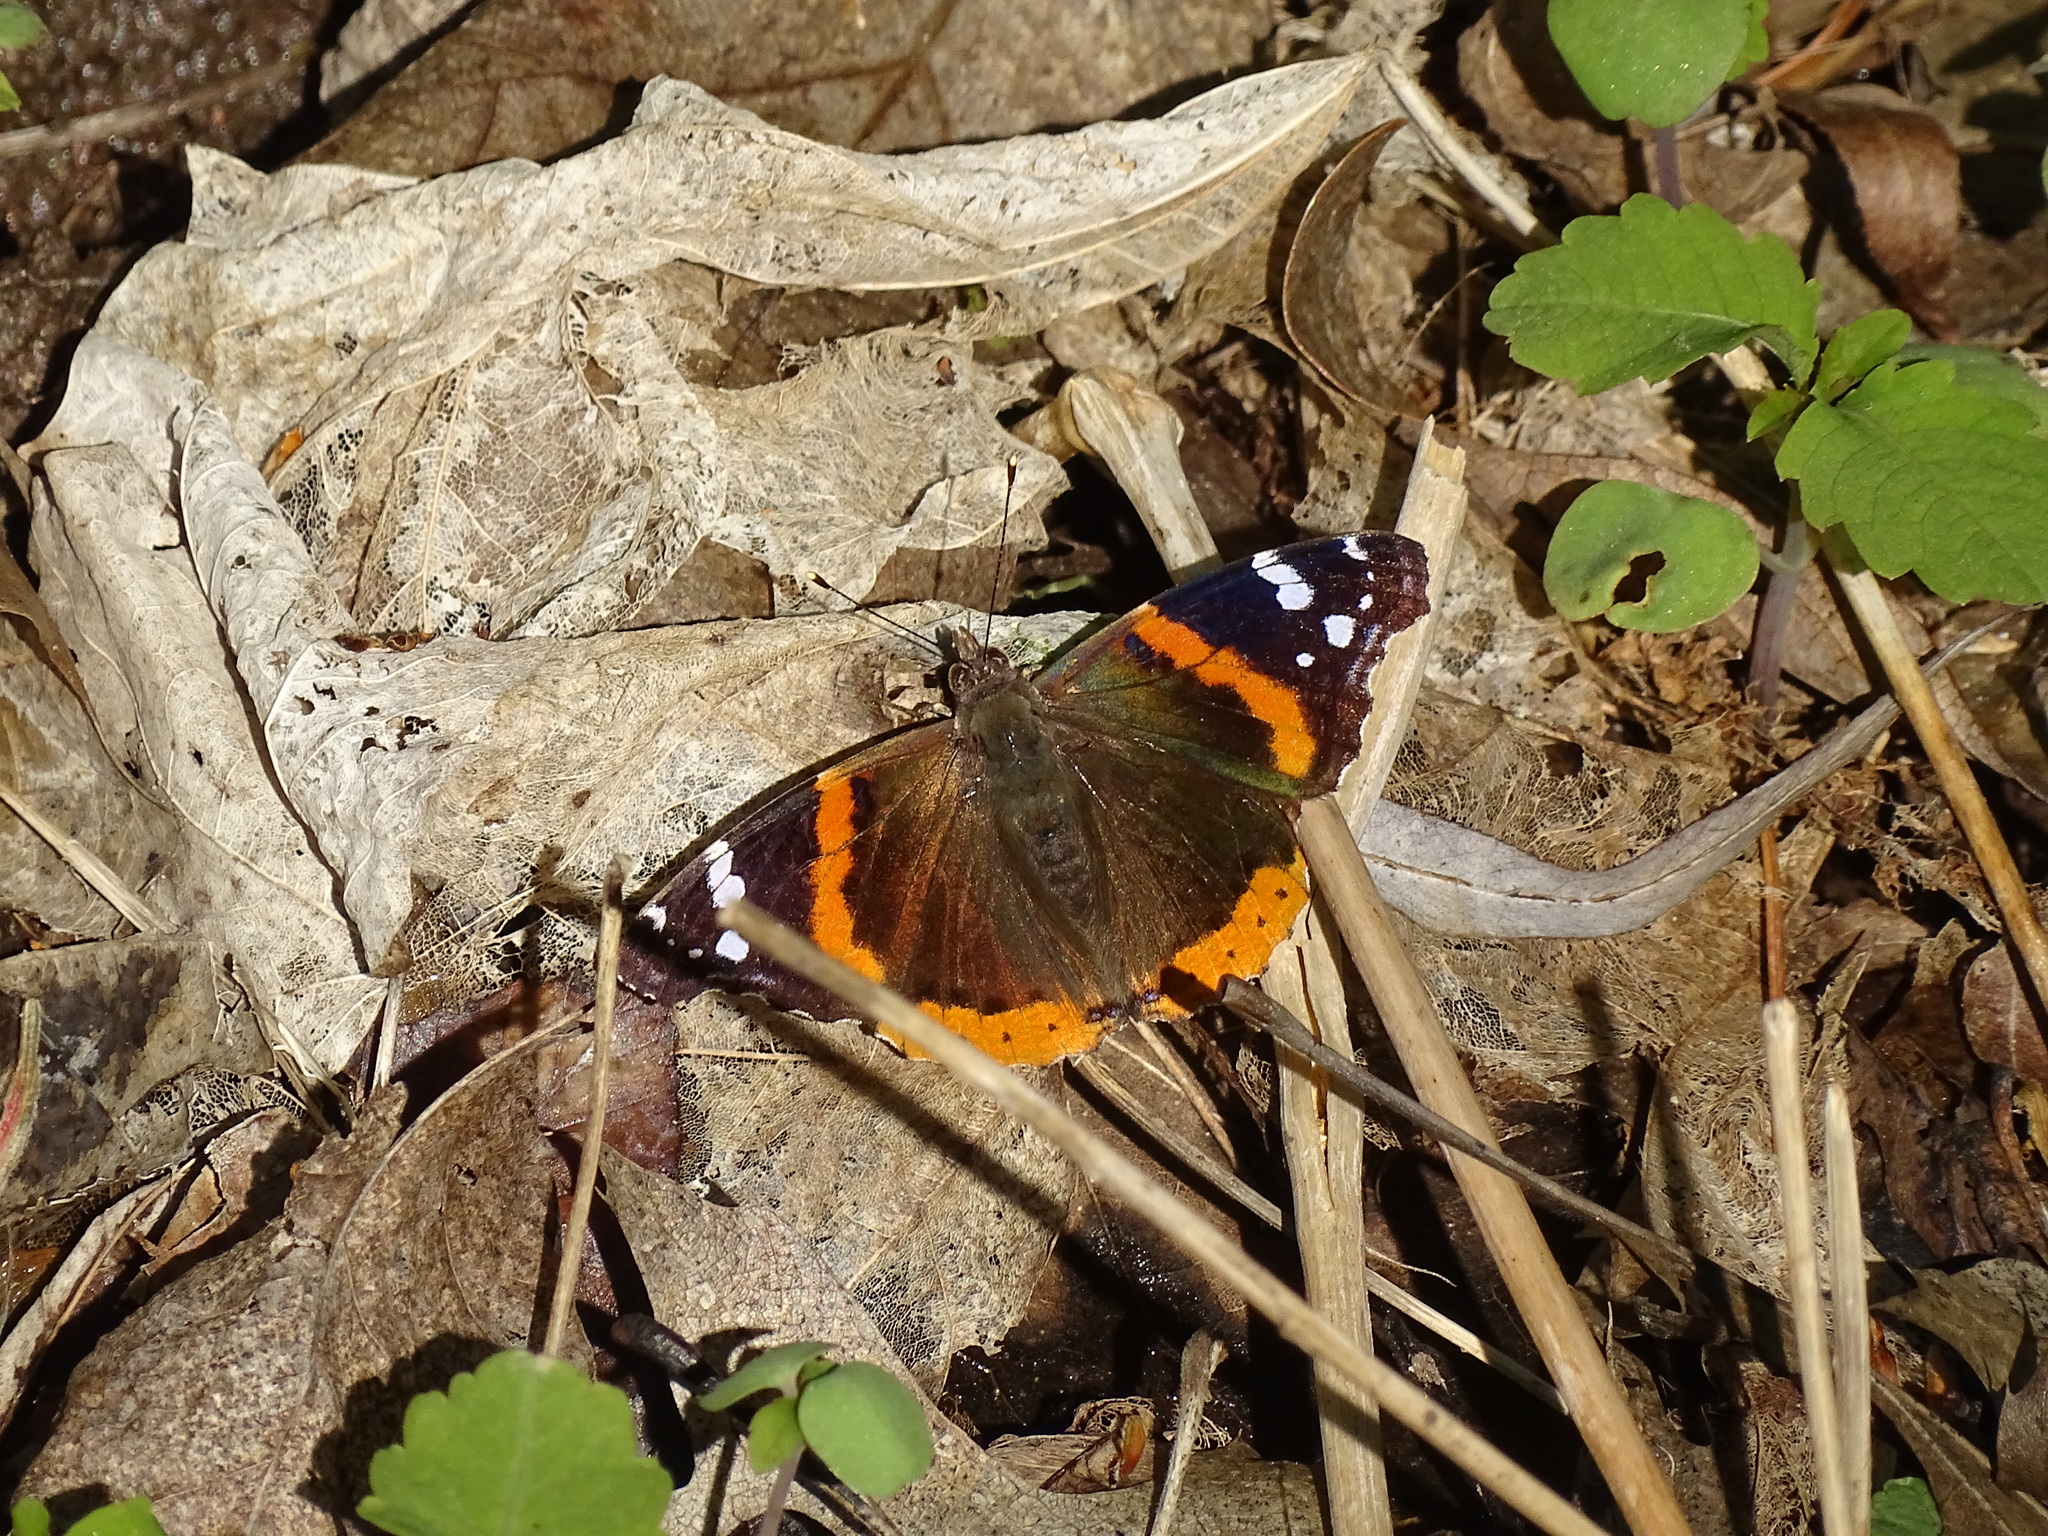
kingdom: Animalia
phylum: Arthropoda
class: Insecta
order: Lepidoptera
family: Nymphalidae
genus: Vanessa
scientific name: Vanessa atalanta
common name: Red admiral
